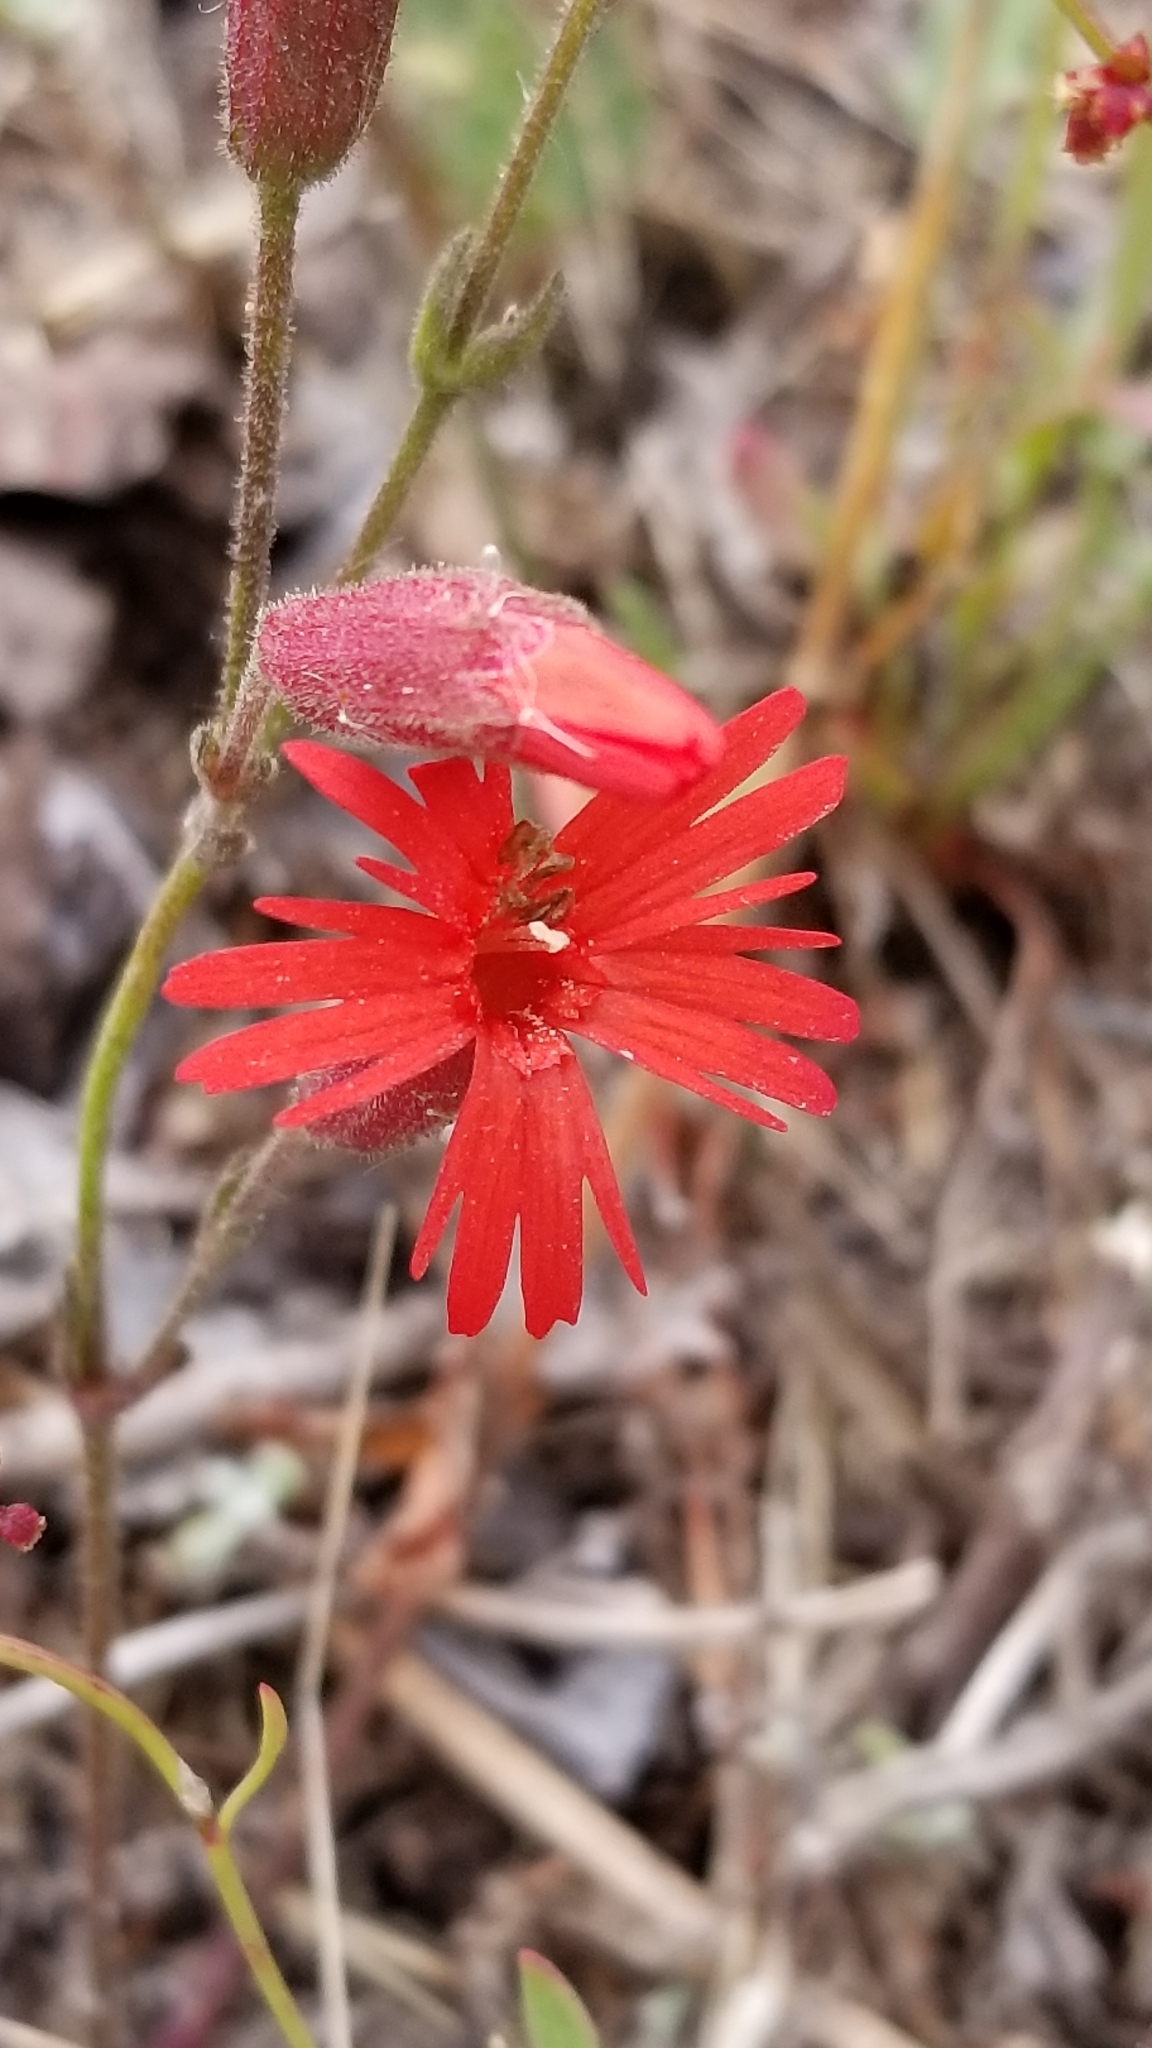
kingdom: Plantae
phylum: Tracheophyta
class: Magnoliopsida
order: Caryophyllales
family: Caryophyllaceae
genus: Silene
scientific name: Silene laciniata
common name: Indian-pink
